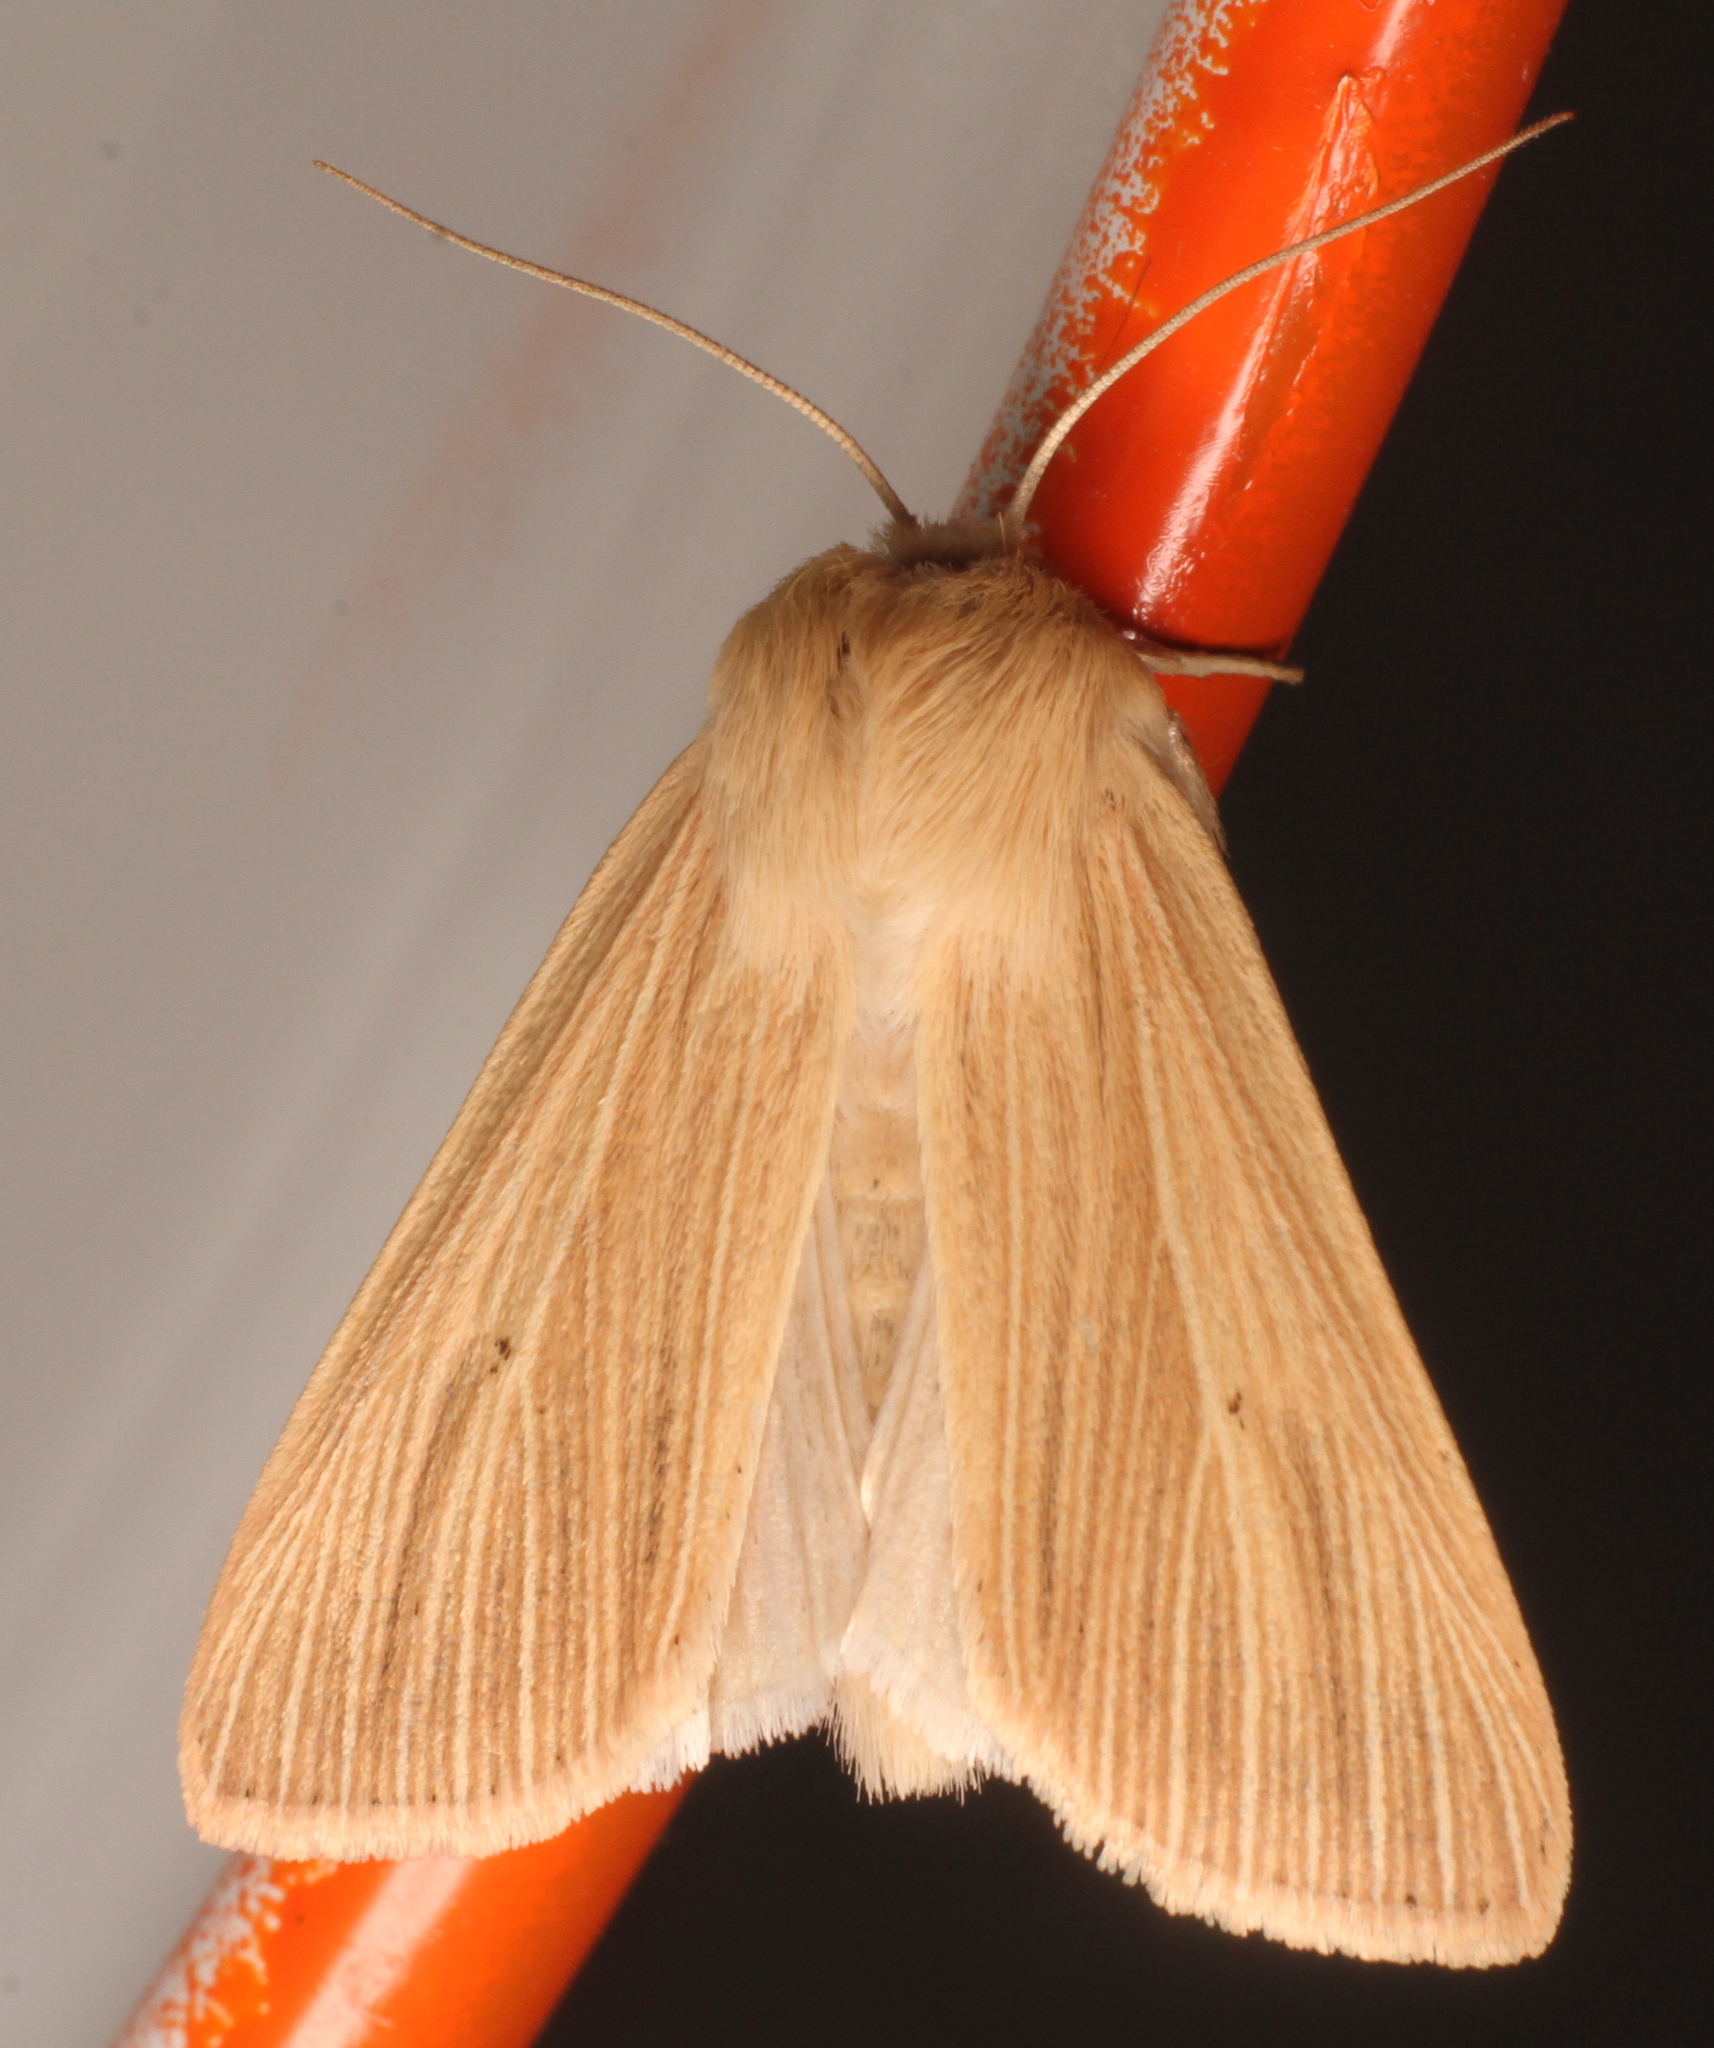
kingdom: Animalia
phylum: Arthropoda
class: Insecta
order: Lepidoptera
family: Noctuidae
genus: Mythimna
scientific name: Mythimna pallens
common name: Common wainscot
